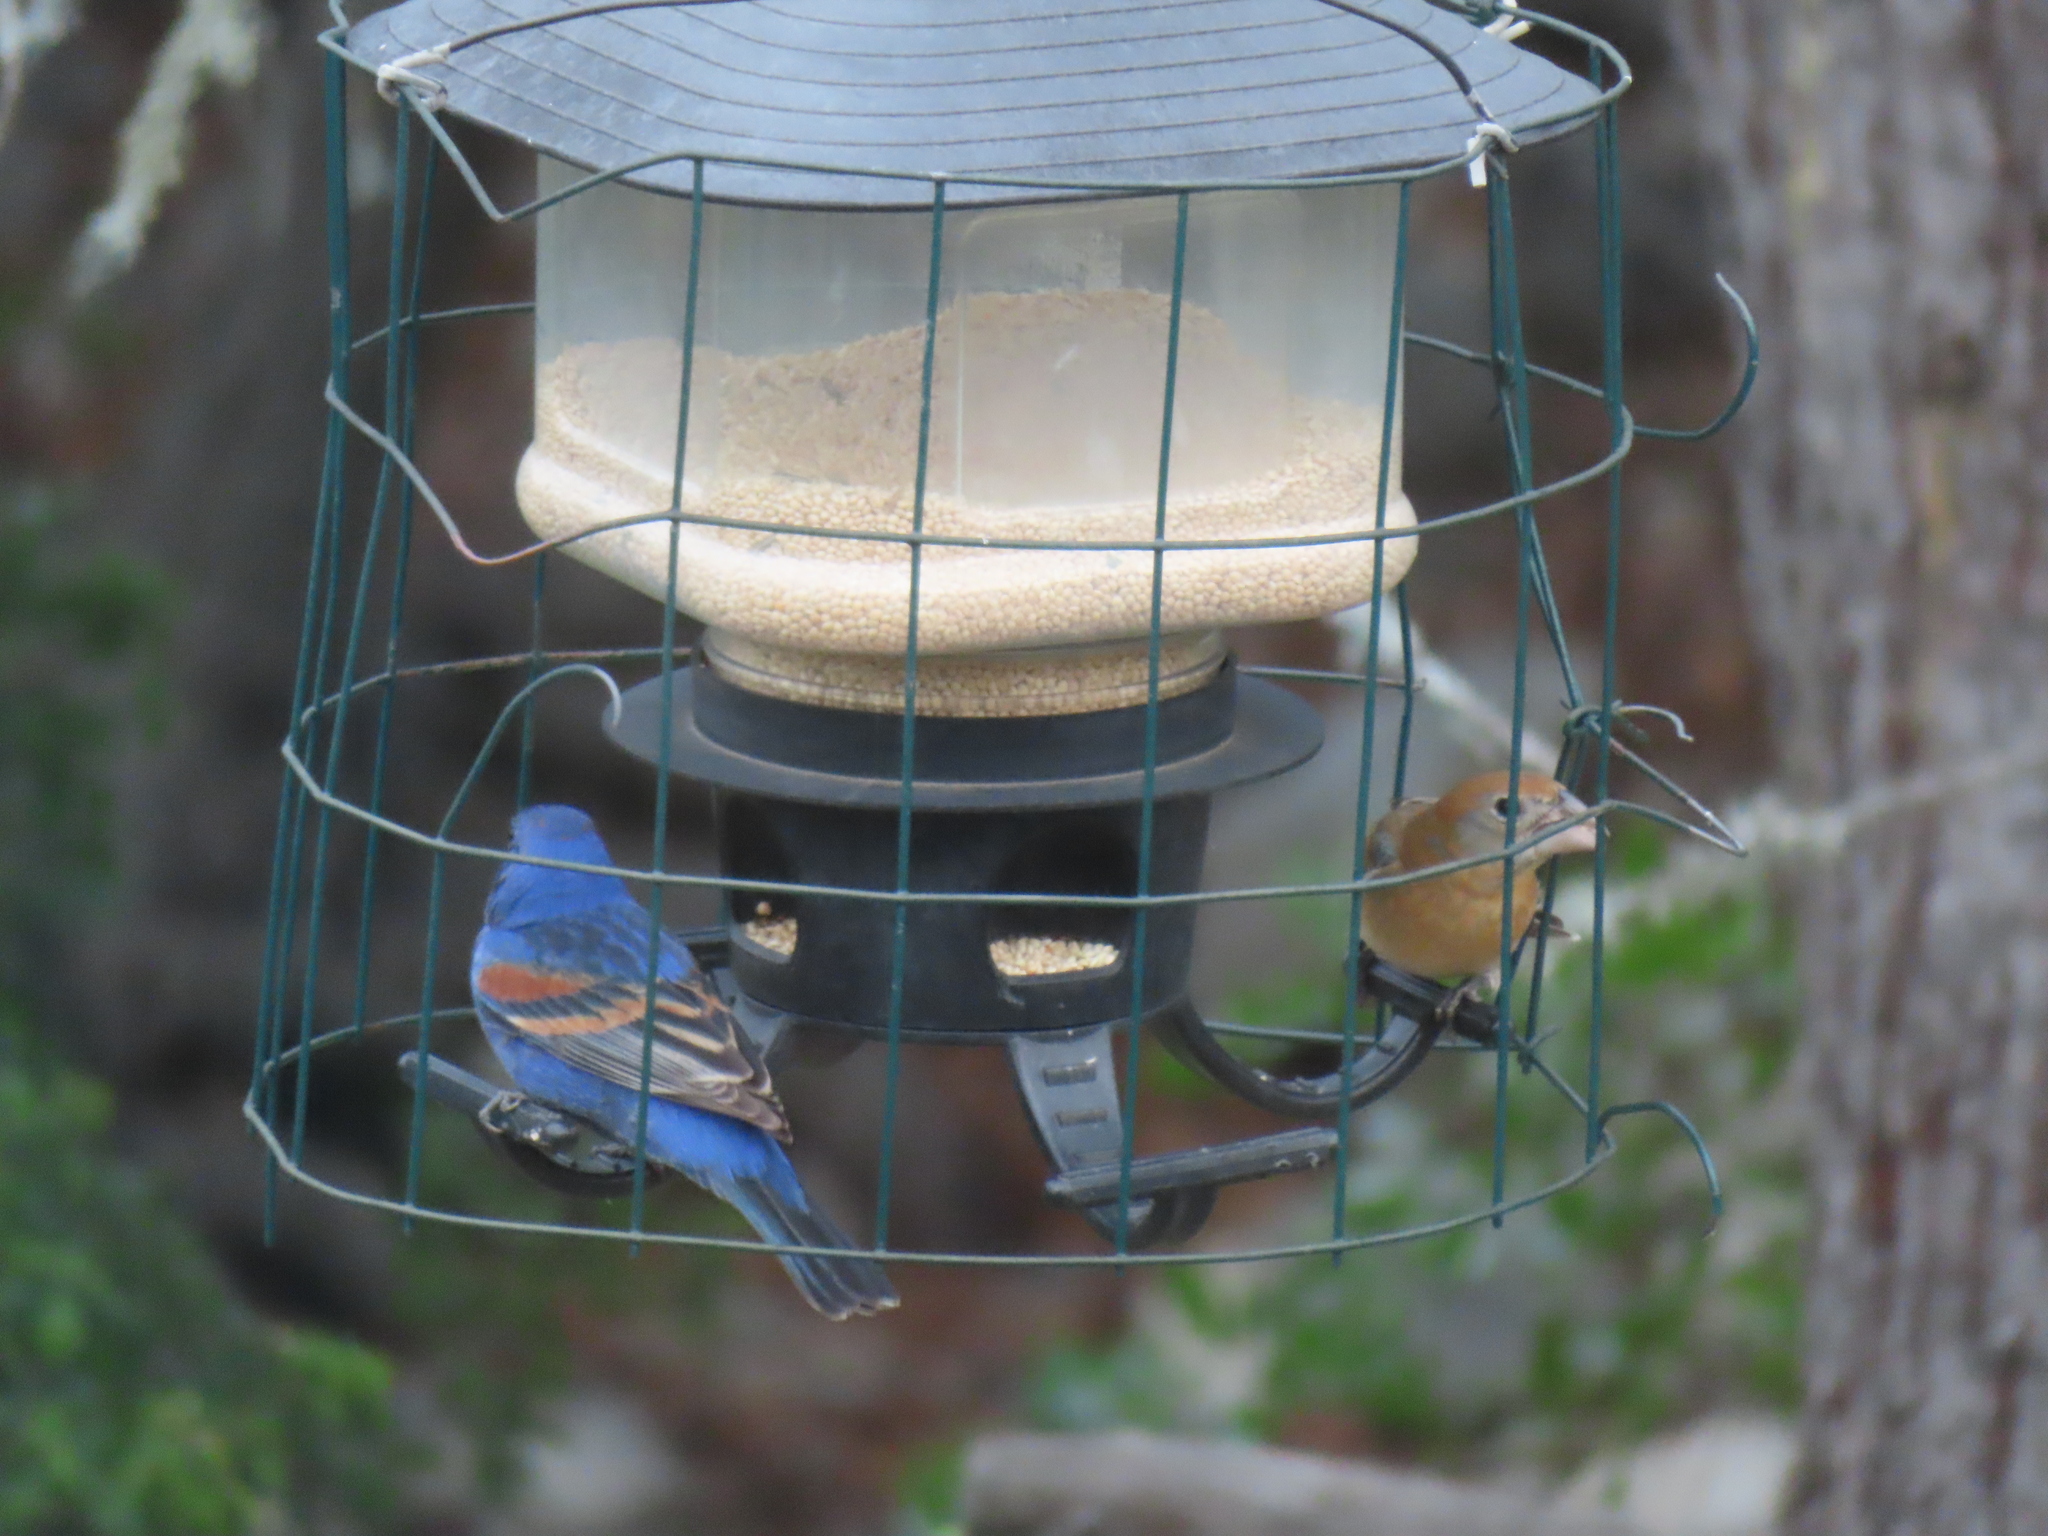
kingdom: Animalia
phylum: Chordata
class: Aves
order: Passeriformes
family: Cardinalidae
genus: Passerina
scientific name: Passerina caerulea
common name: Blue grosbeak
